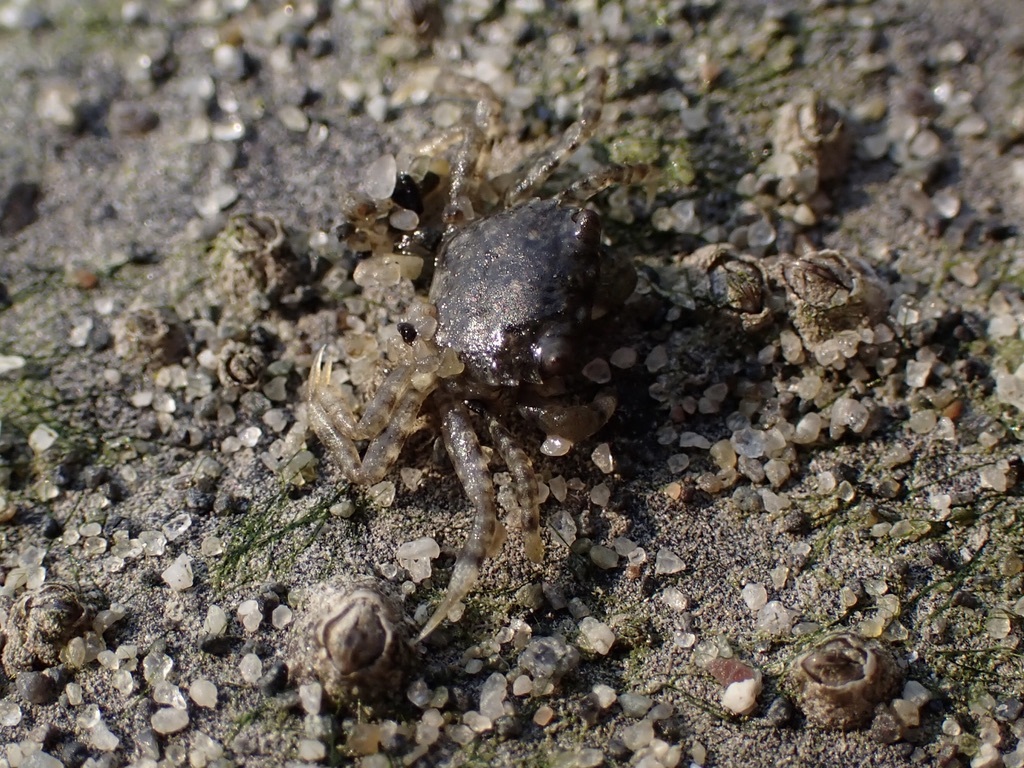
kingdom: Animalia
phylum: Arthropoda
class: Malacostraca
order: Decapoda
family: Varunidae
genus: Hemigrapsus
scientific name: Hemigrapsus oregonensis
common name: Yellow shore crab
